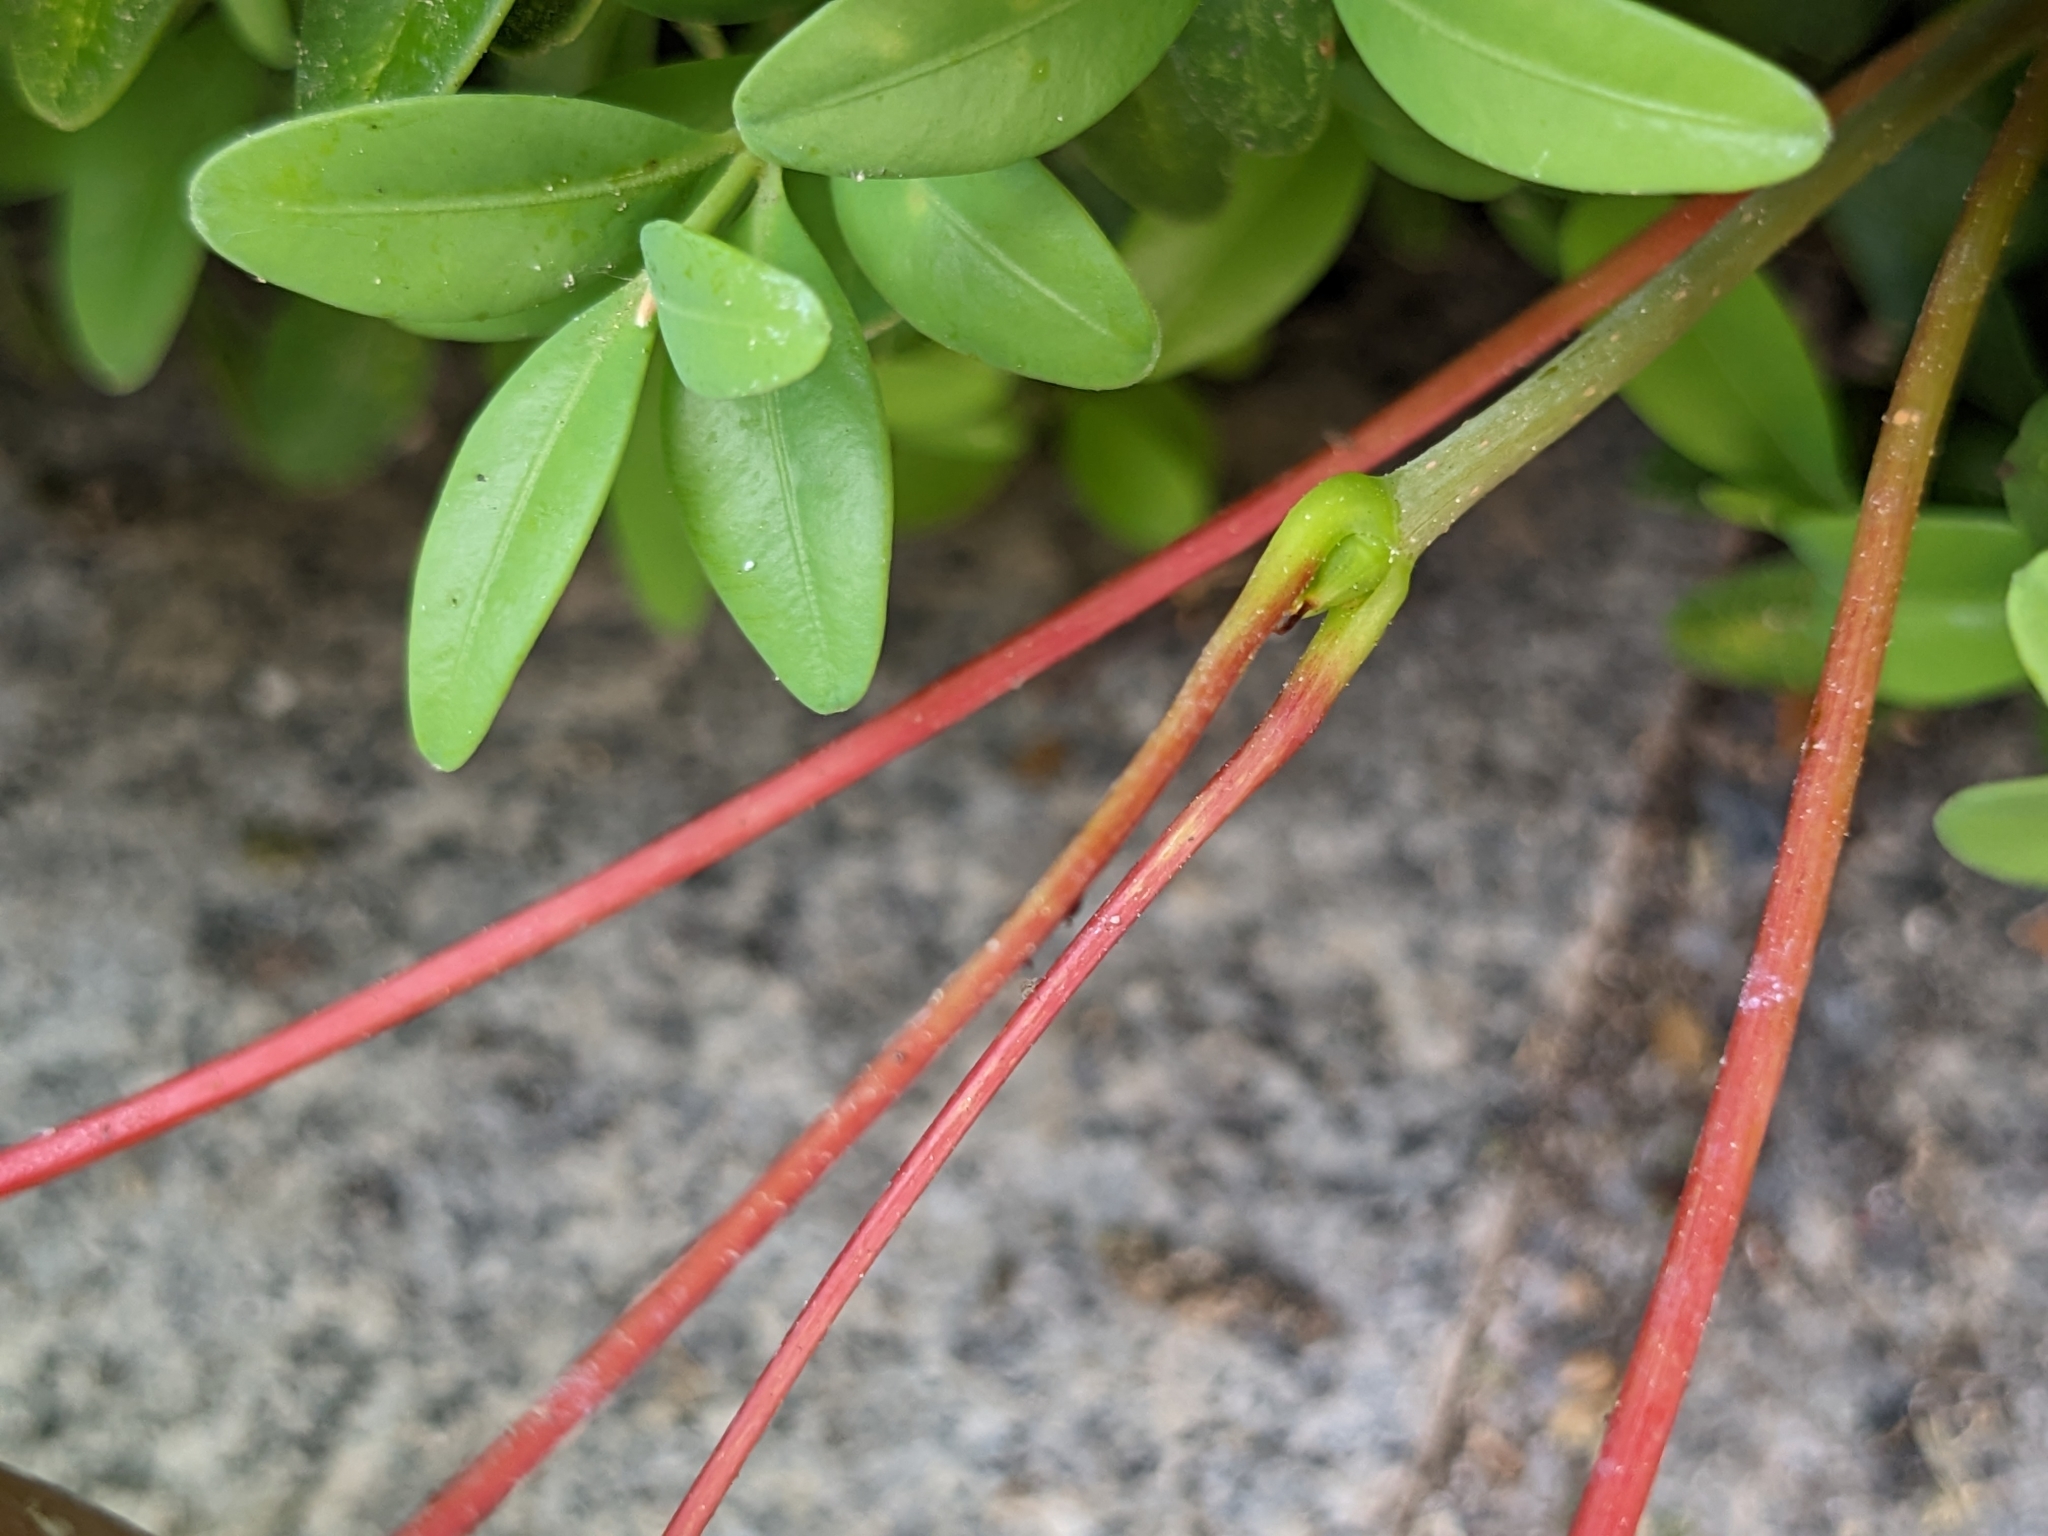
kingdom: Plantae
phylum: Tracheophyta
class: Magnoliopsida
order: Sapindales
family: Sapindaceae
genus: Acer
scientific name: Acer pseudoplatanus
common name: Sycamore
